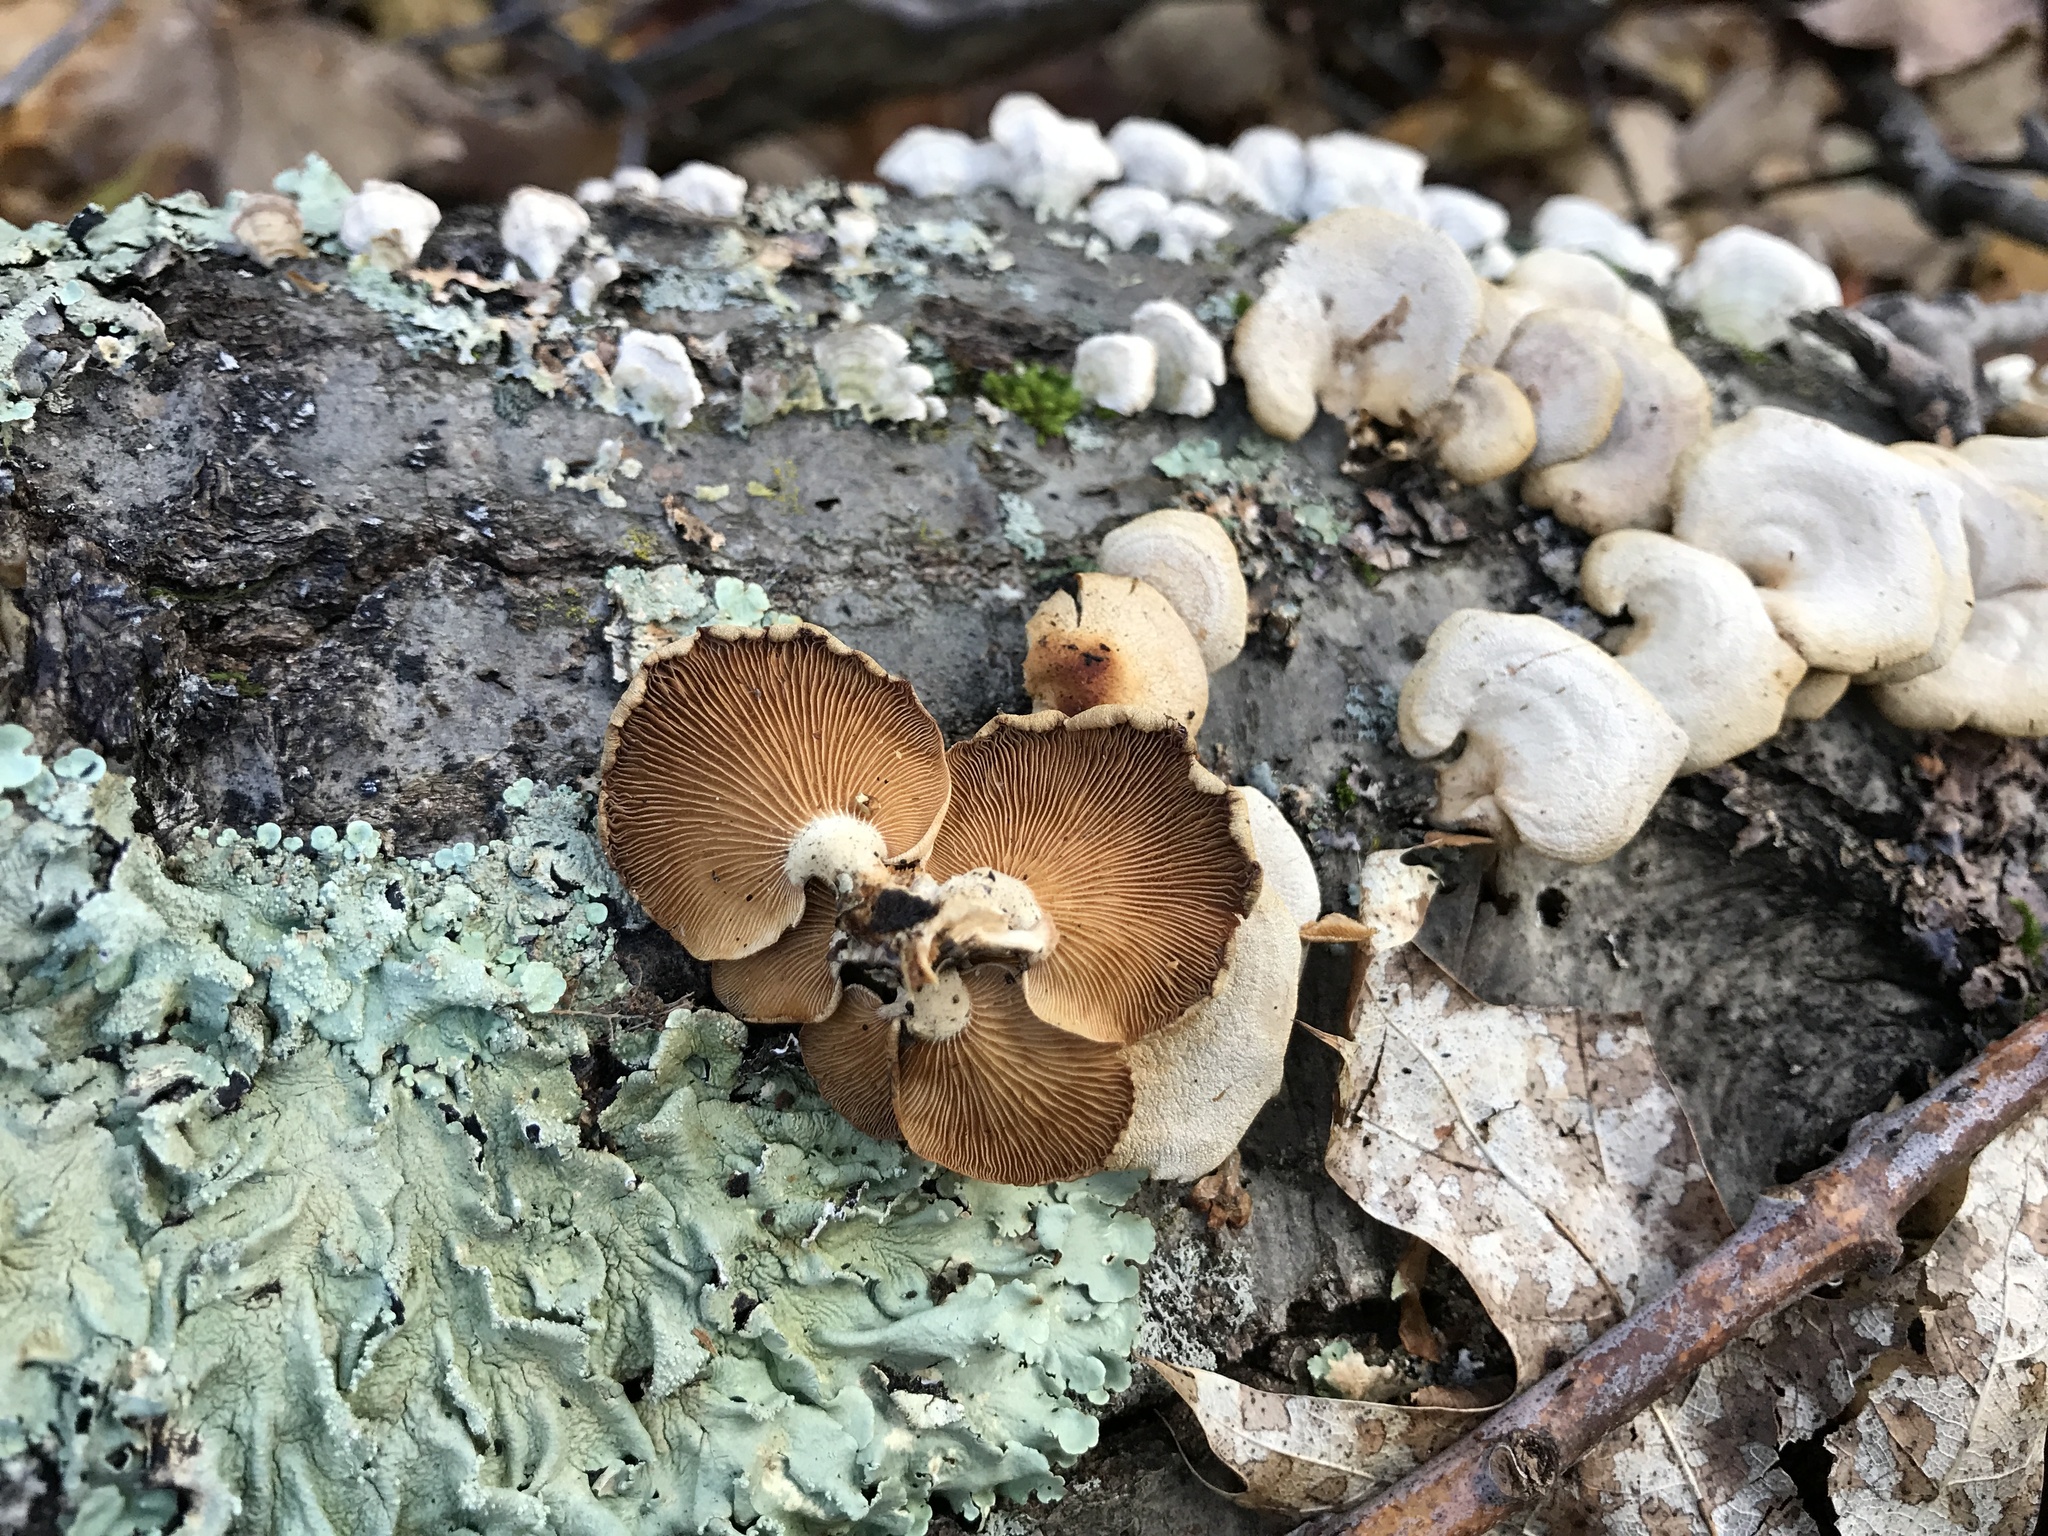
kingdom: Fungi
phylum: Basidiomycota
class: Agaricomycetes
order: Agaricales
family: Mycenaceae
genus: Panellus
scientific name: Panellus stipticus
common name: Bitter oysterling
